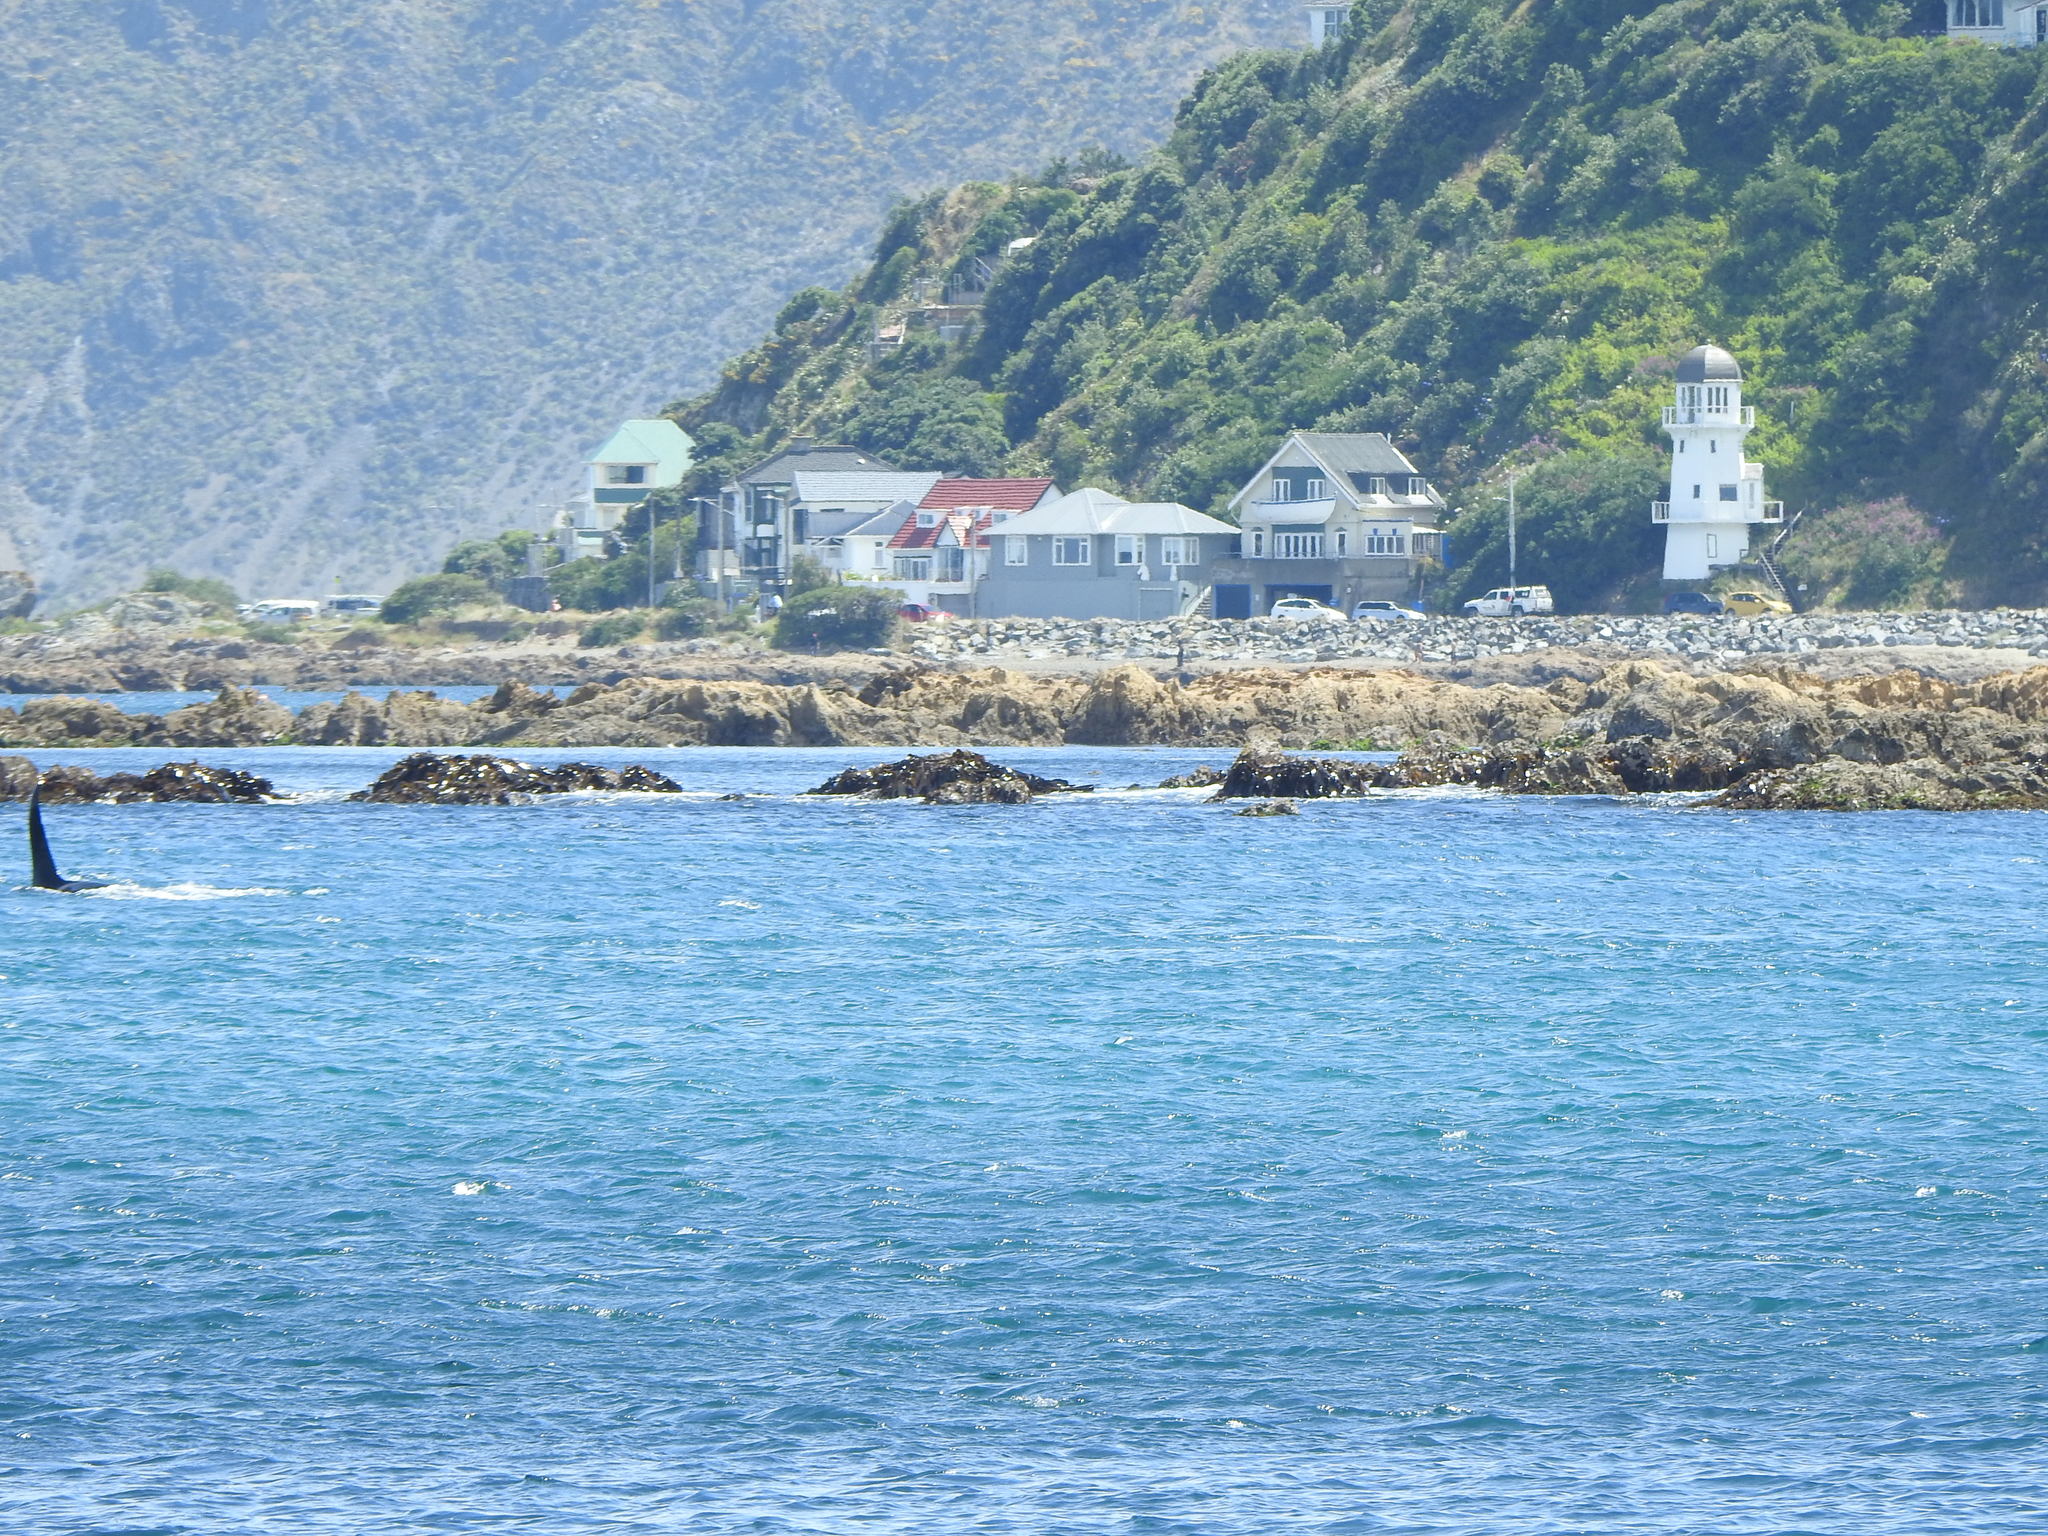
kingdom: Animalia
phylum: Chordata
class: Mammalia
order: Cetacea
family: Delphinidae
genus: Orcinus
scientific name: Orcinus orca
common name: Killer whale
